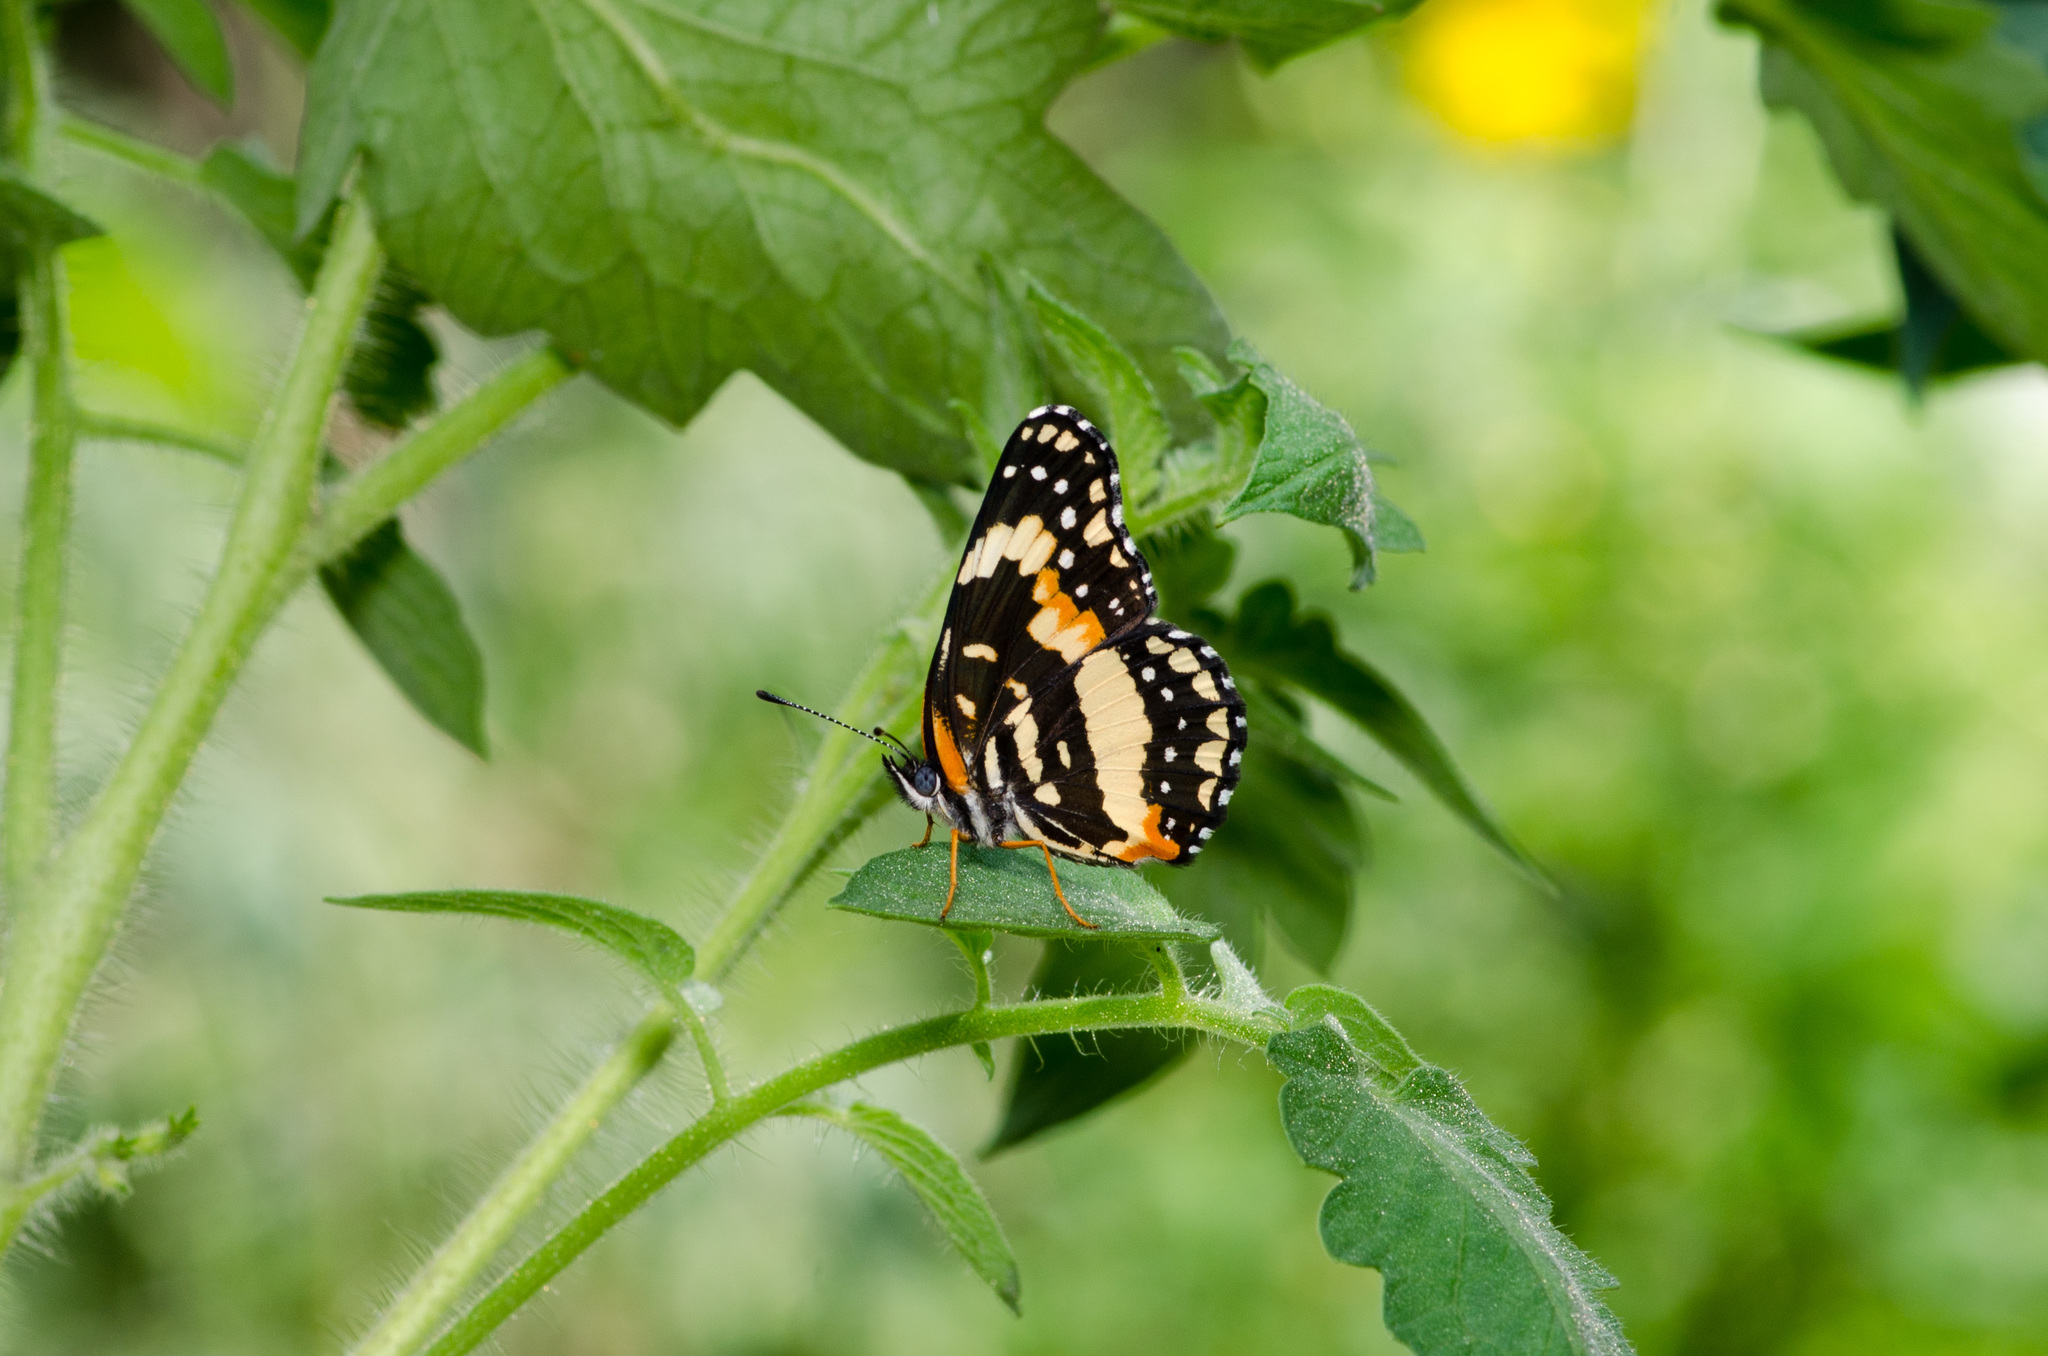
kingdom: Animalia
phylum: Arthropoda
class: Insecta
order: Lepidoptera
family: Nymphalidae
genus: Chlosyne
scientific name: Chlosyne lacinia
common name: Bordered patch
